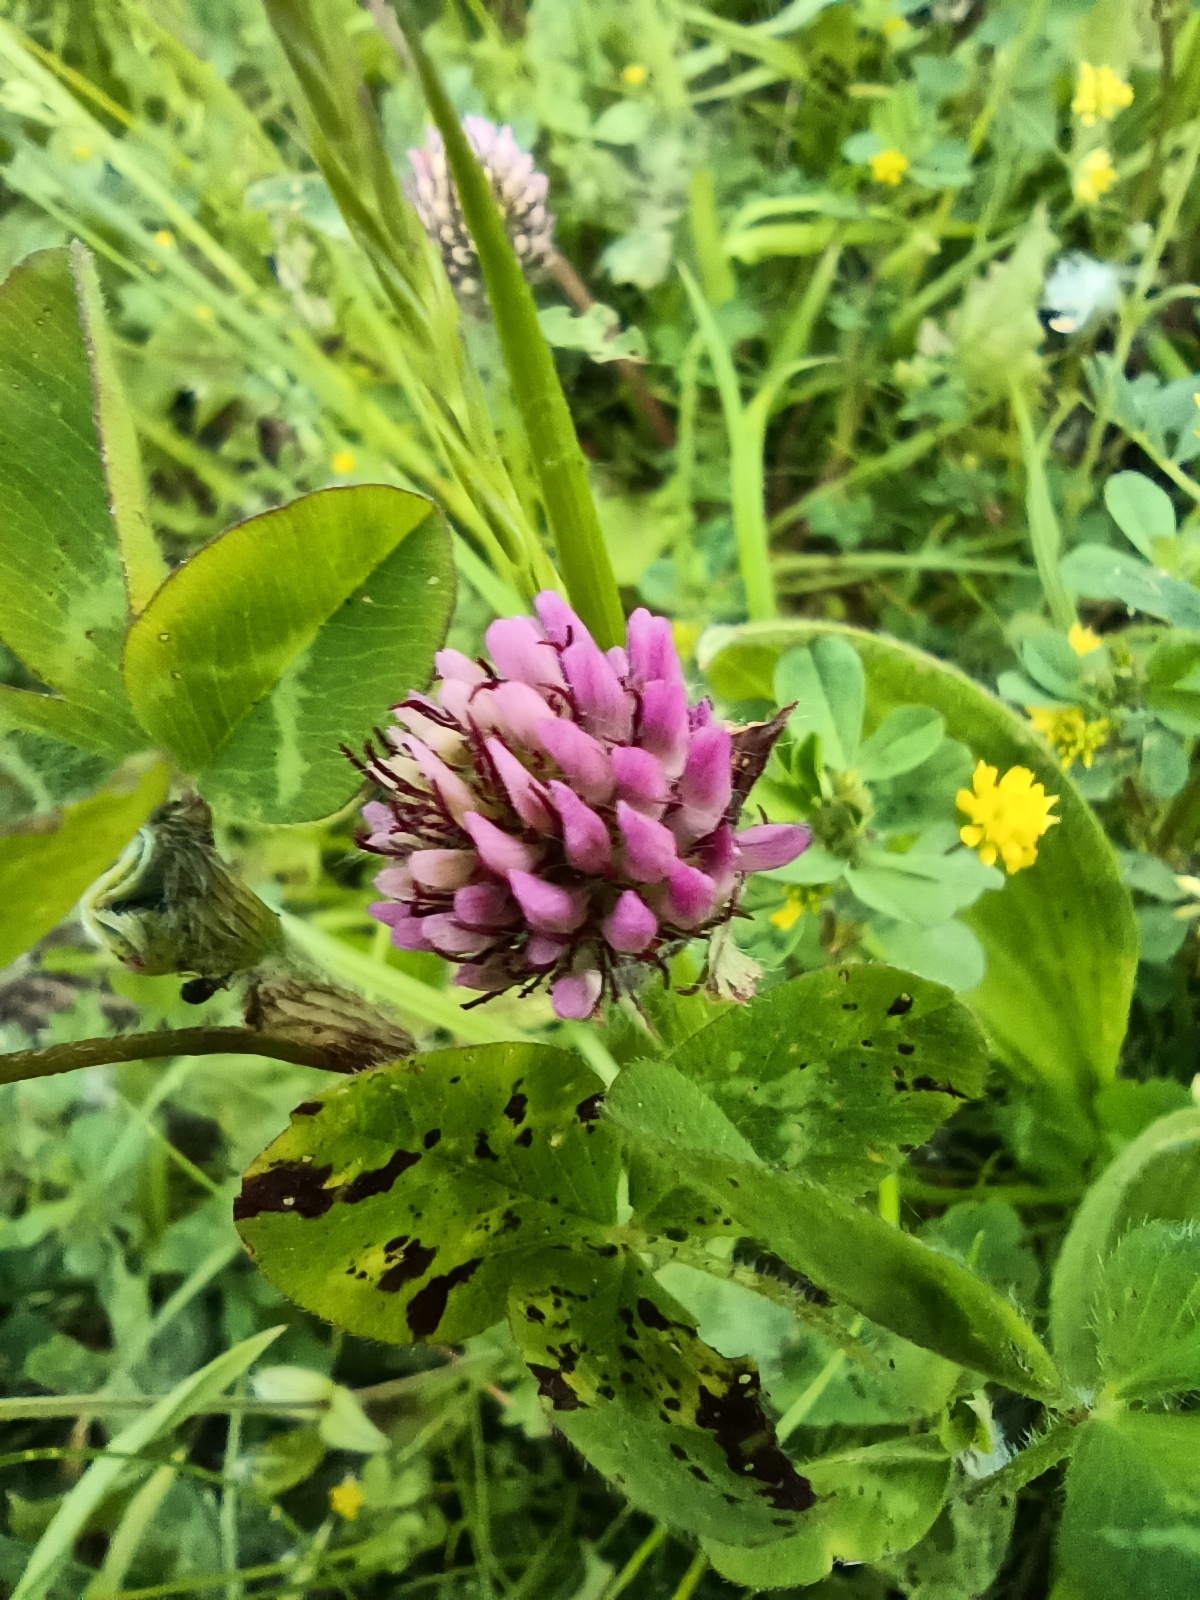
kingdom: Plantae
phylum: Tracheophyta
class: Magnoliopsida
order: Fabales
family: Fabaceae
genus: Trifolium
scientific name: Trifolium pratense
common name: Red clover
